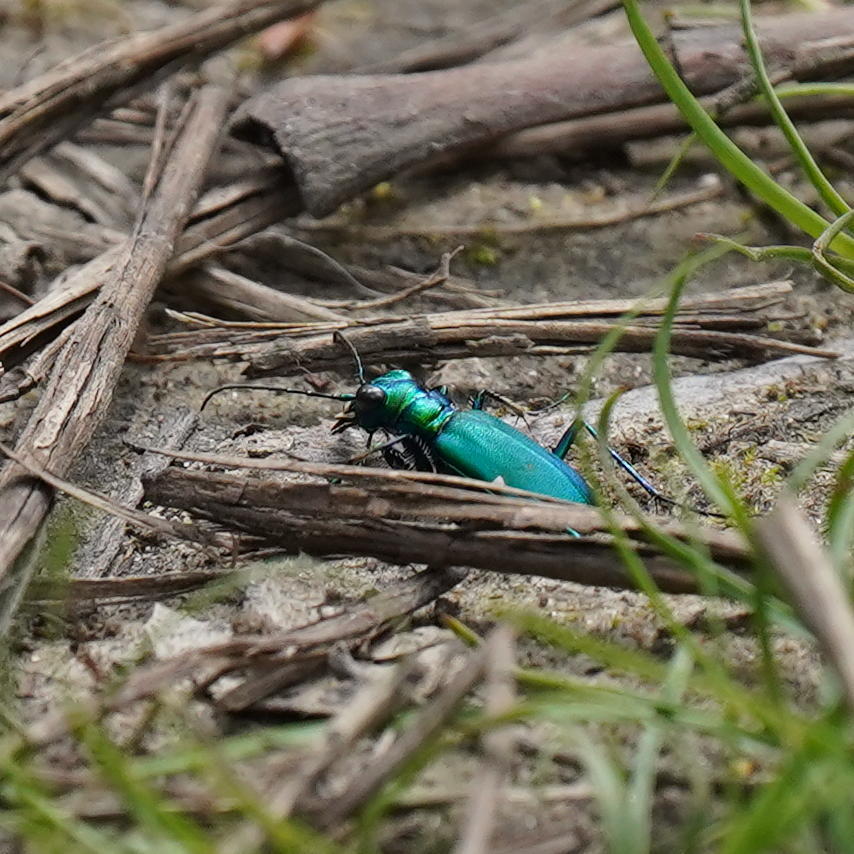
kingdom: Animalia
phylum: Arthropoda
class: Insecta
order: Coleoptera
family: Carabidae
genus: Cicindela
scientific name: Cicindela sexguttata
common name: Six-spotted tiger beetle
